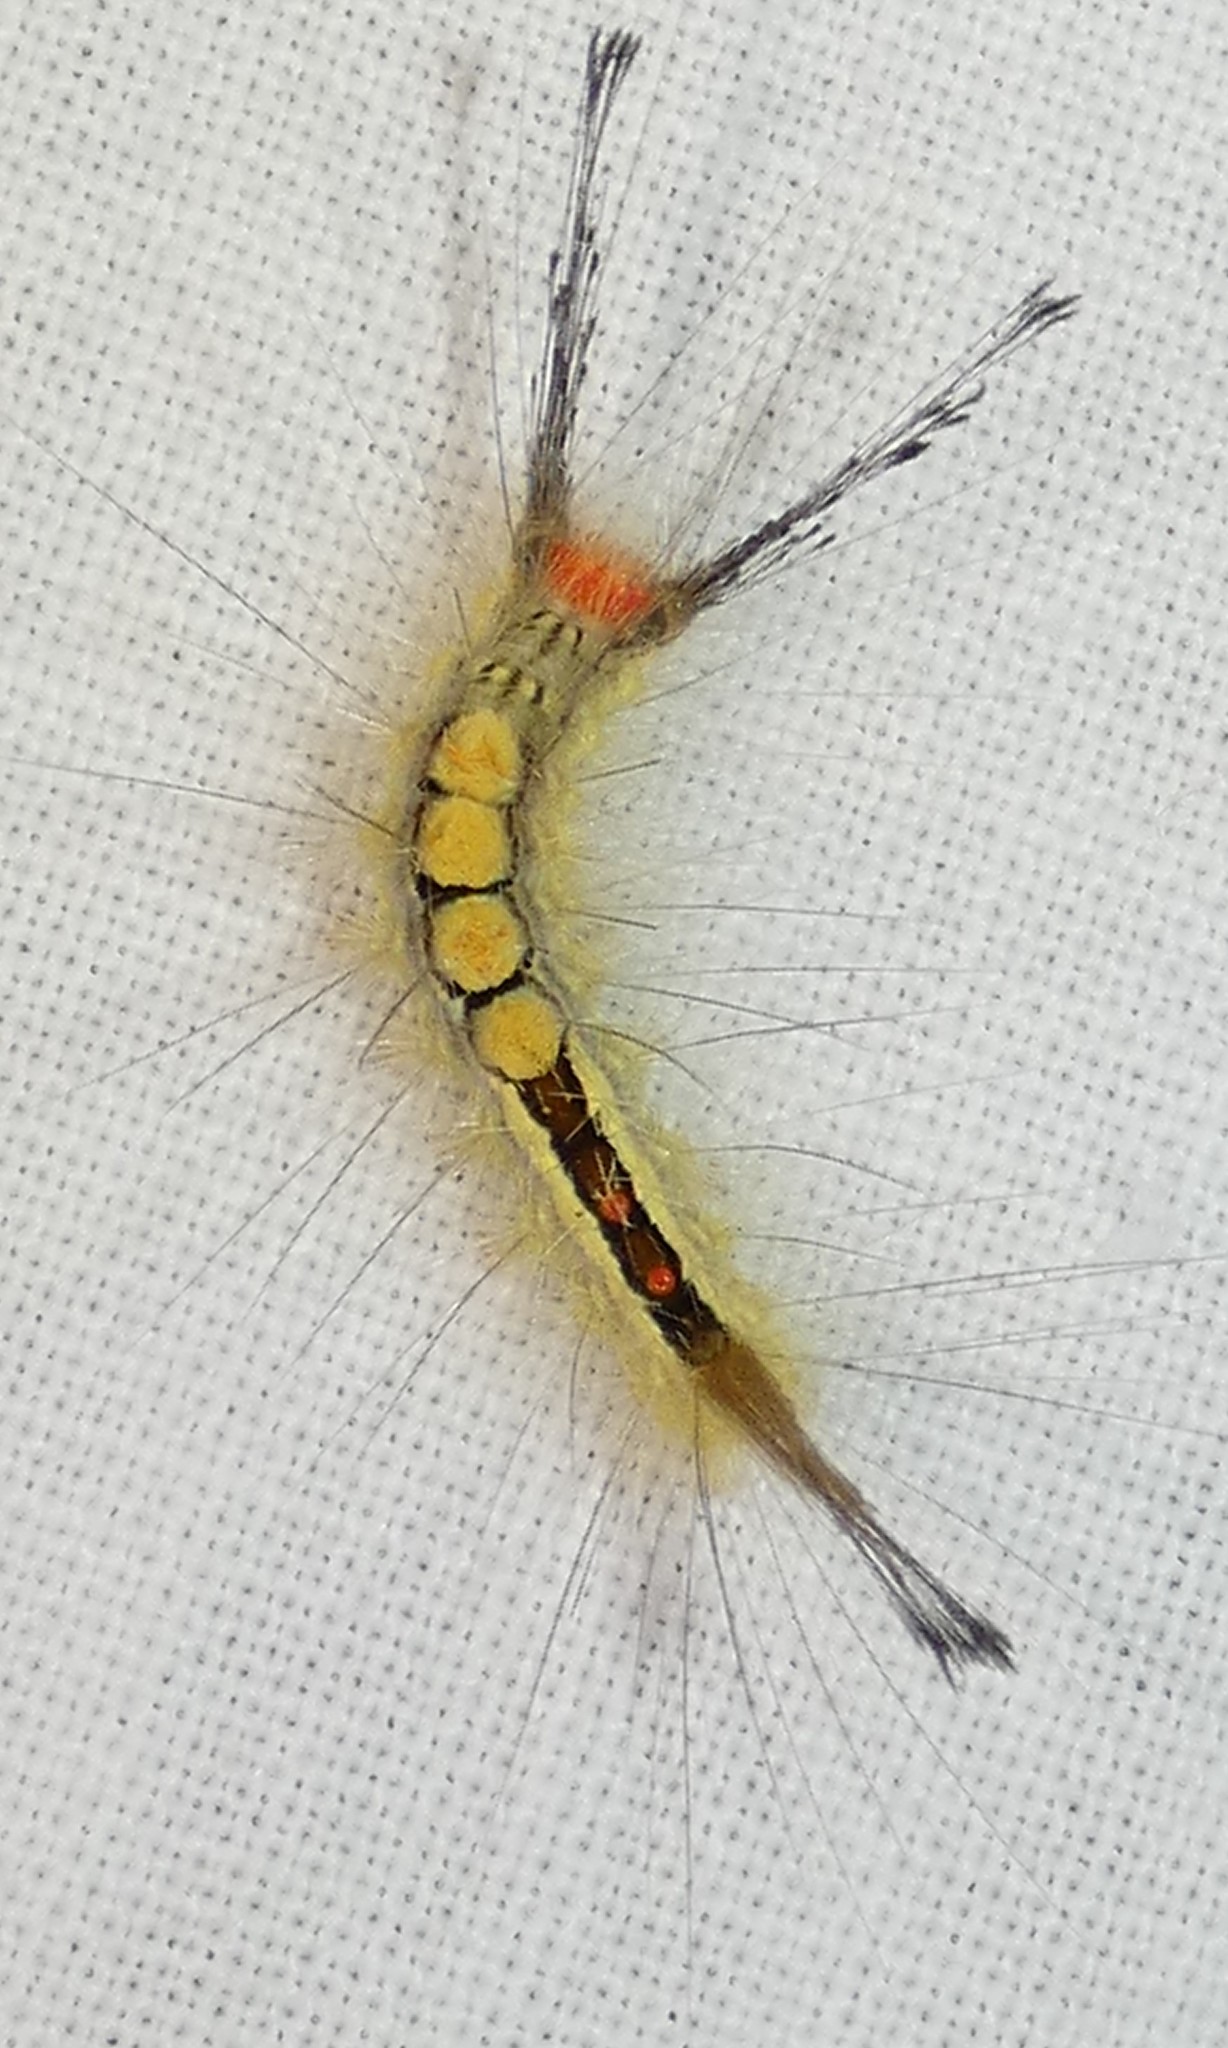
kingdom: Animalia
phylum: Arthropoda
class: Insecta
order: Lepidoptera
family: Erebidae
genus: Orgyia
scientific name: Orgyia leucostigma
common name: White-marked tussock moth
